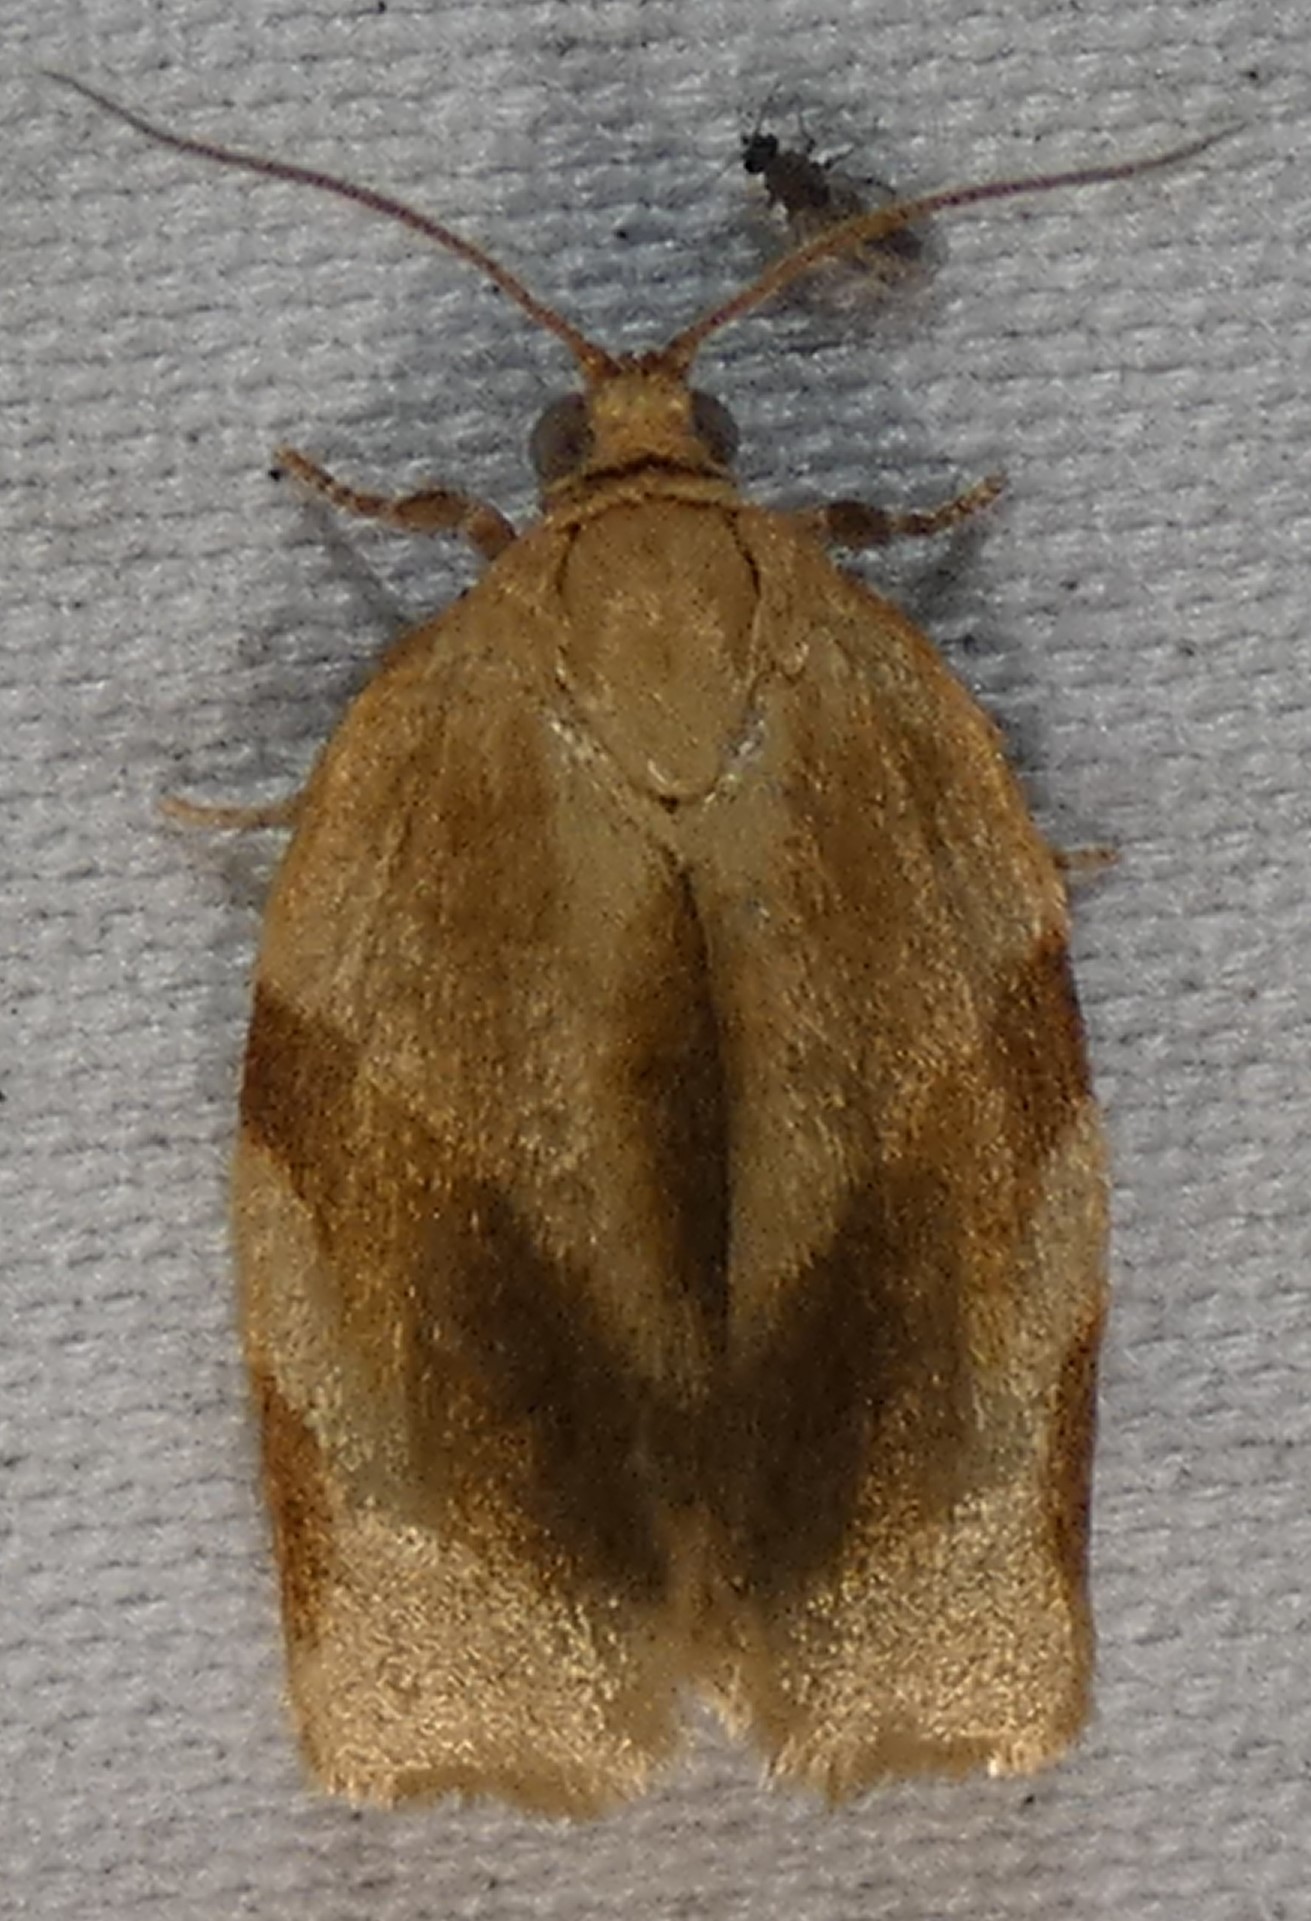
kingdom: Animalia
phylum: Arthropoda
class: Insecta
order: Lepidoptera
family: Tortricidae
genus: Choristoneura
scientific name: Choristoneura fractivittana
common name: Broken-banded leafroller moth
